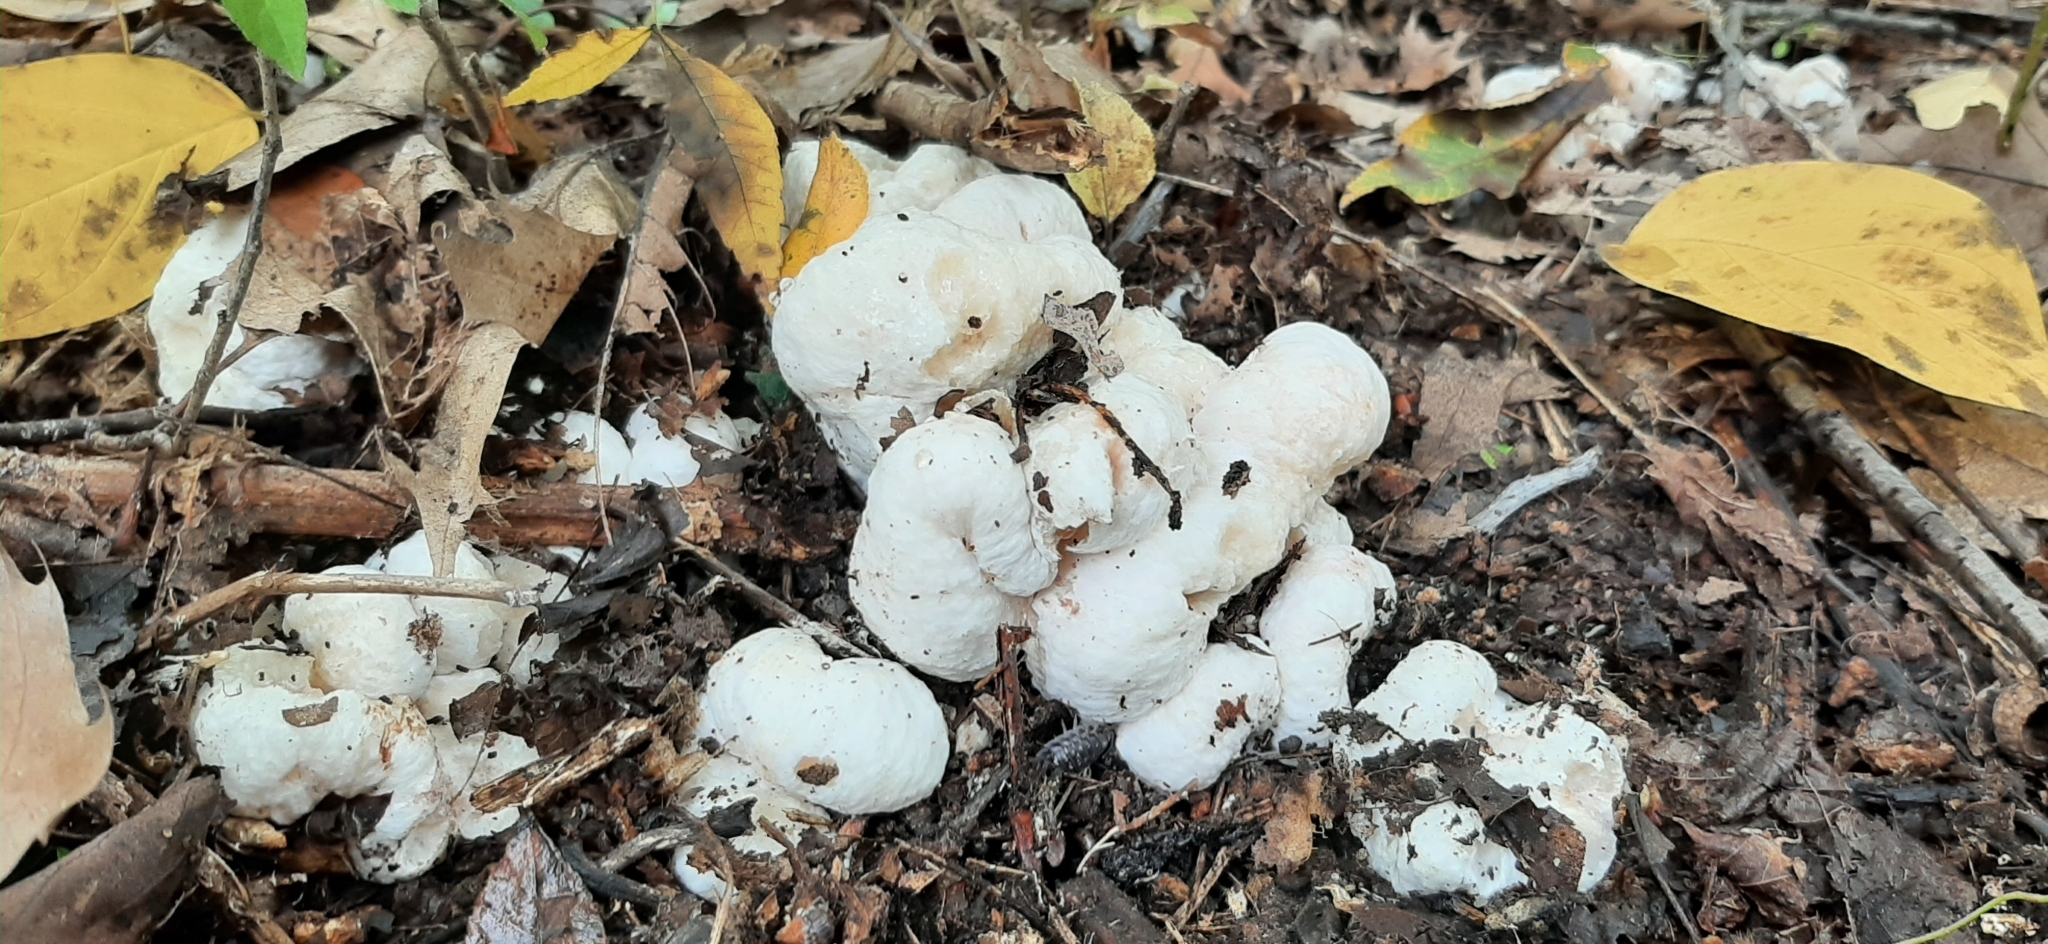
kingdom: Fungi
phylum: Basidiomycota
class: Agaricomycetes
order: Agaricales
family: Entolomataceae
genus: Entoloma
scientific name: Entoloma abortivum
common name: Aborted entoloma
